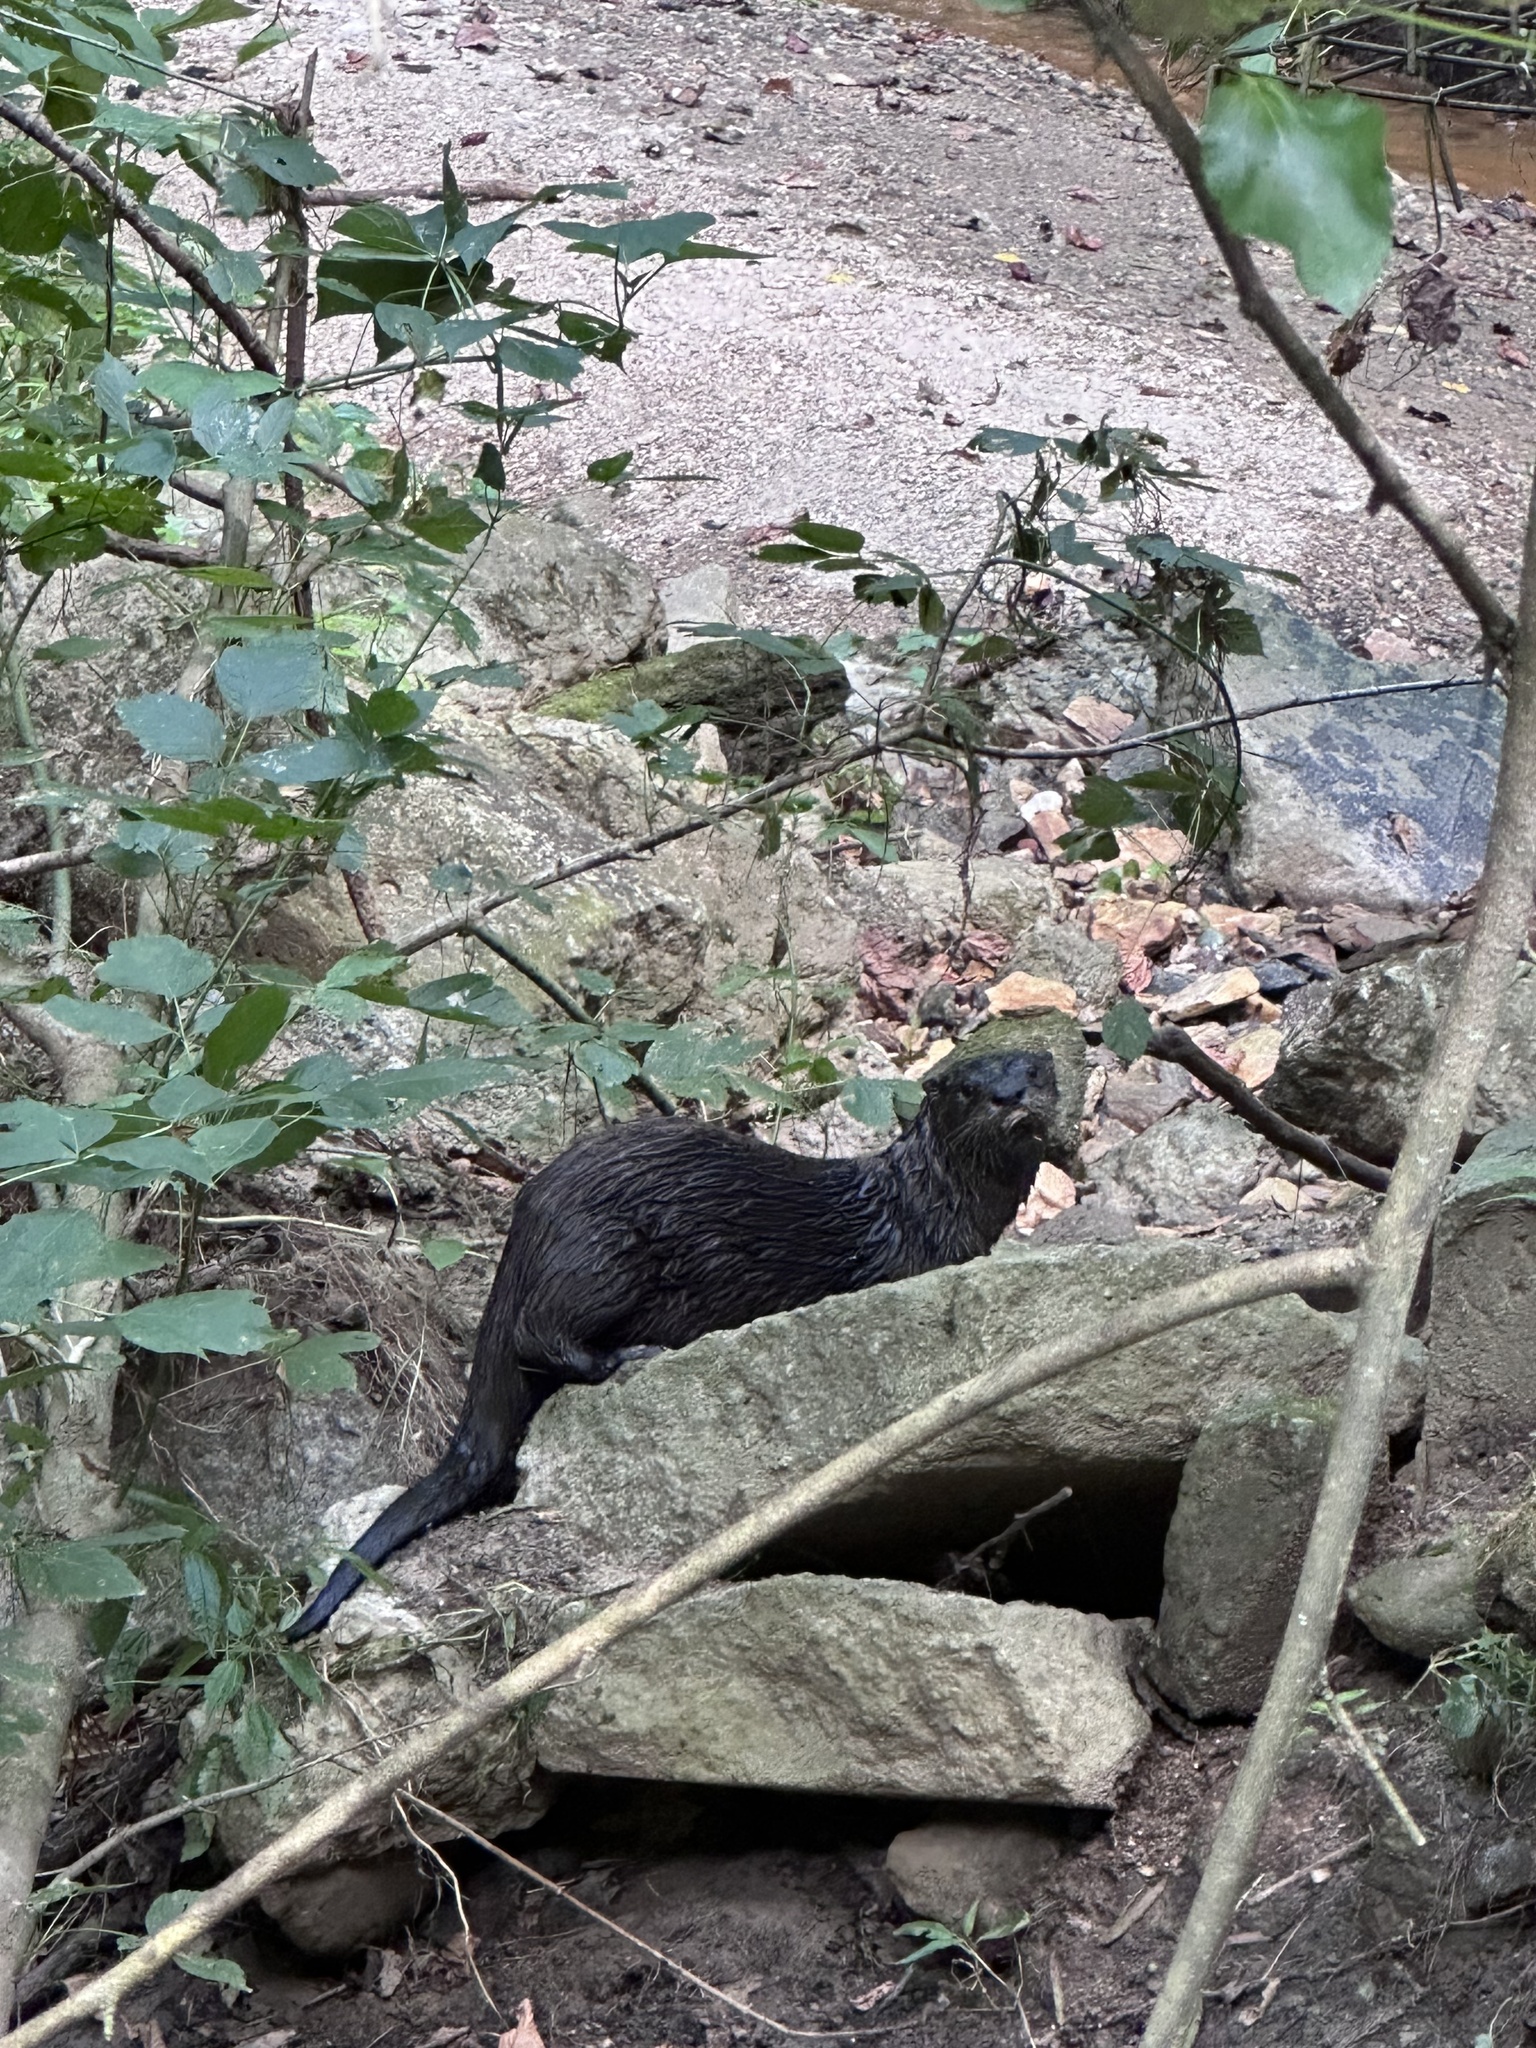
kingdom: Animalia
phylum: Chordata
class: Mammalia
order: Carnivora
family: Mustelidae
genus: Lontra
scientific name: Lontra canadensis
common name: North american river otter
